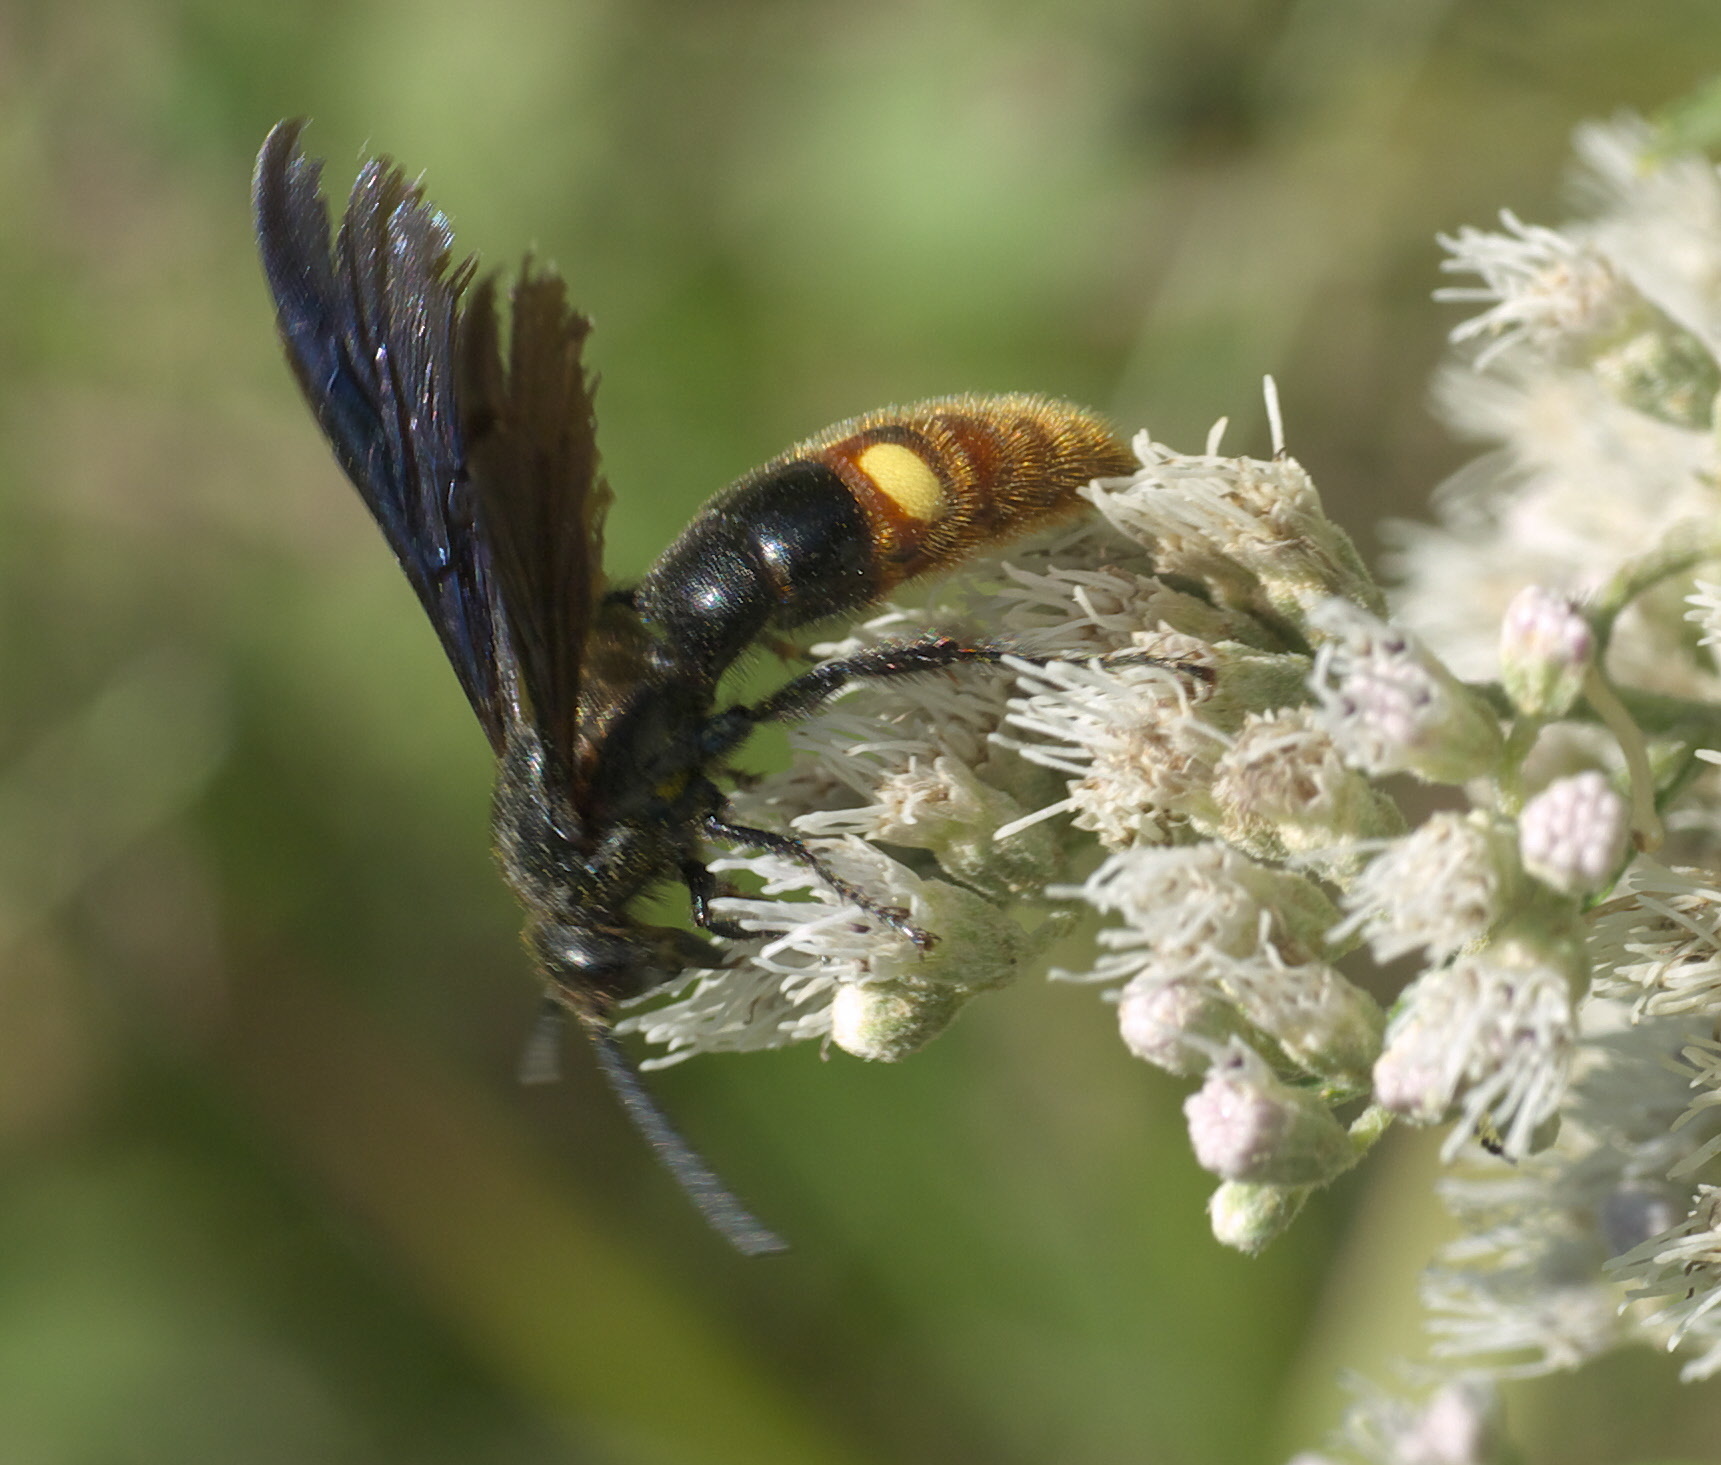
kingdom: Animalia
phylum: Arthropoda
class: Insecta
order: Hymenoptera
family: Scoliidae
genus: Scolia
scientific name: Scolia dubia
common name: Blue-winged scoliid wasp
